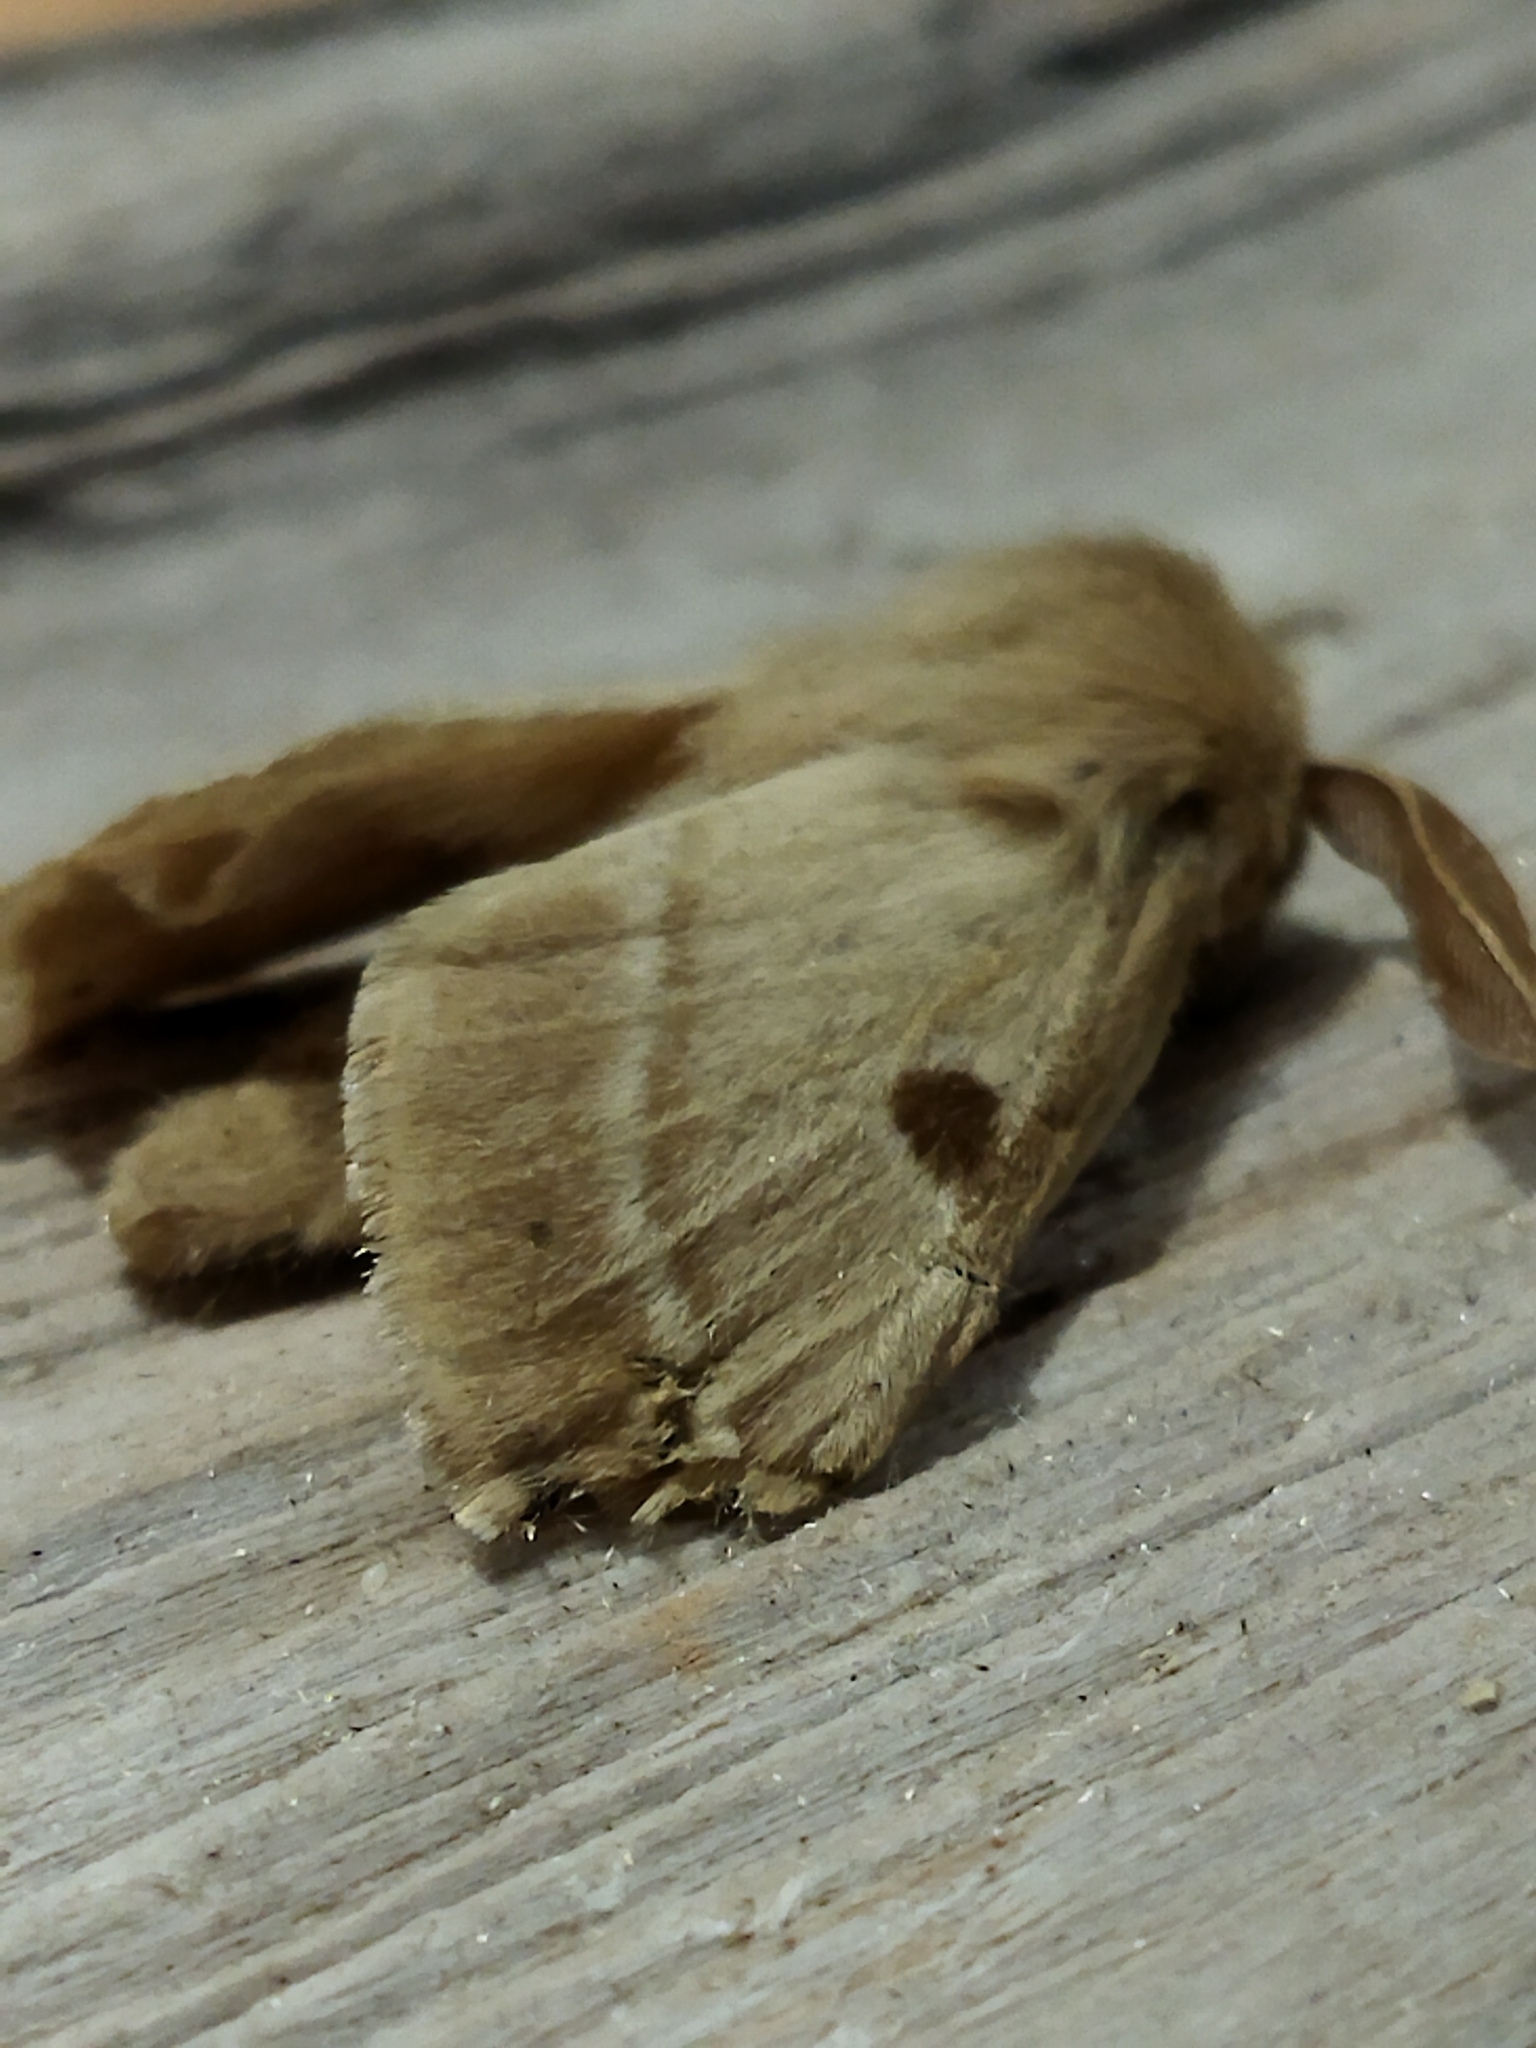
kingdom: Animalia
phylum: Arthropoda
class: Insecta
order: Lepidoptera
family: Brahmaeidae
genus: Lemonia
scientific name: Lemonia balcanica
